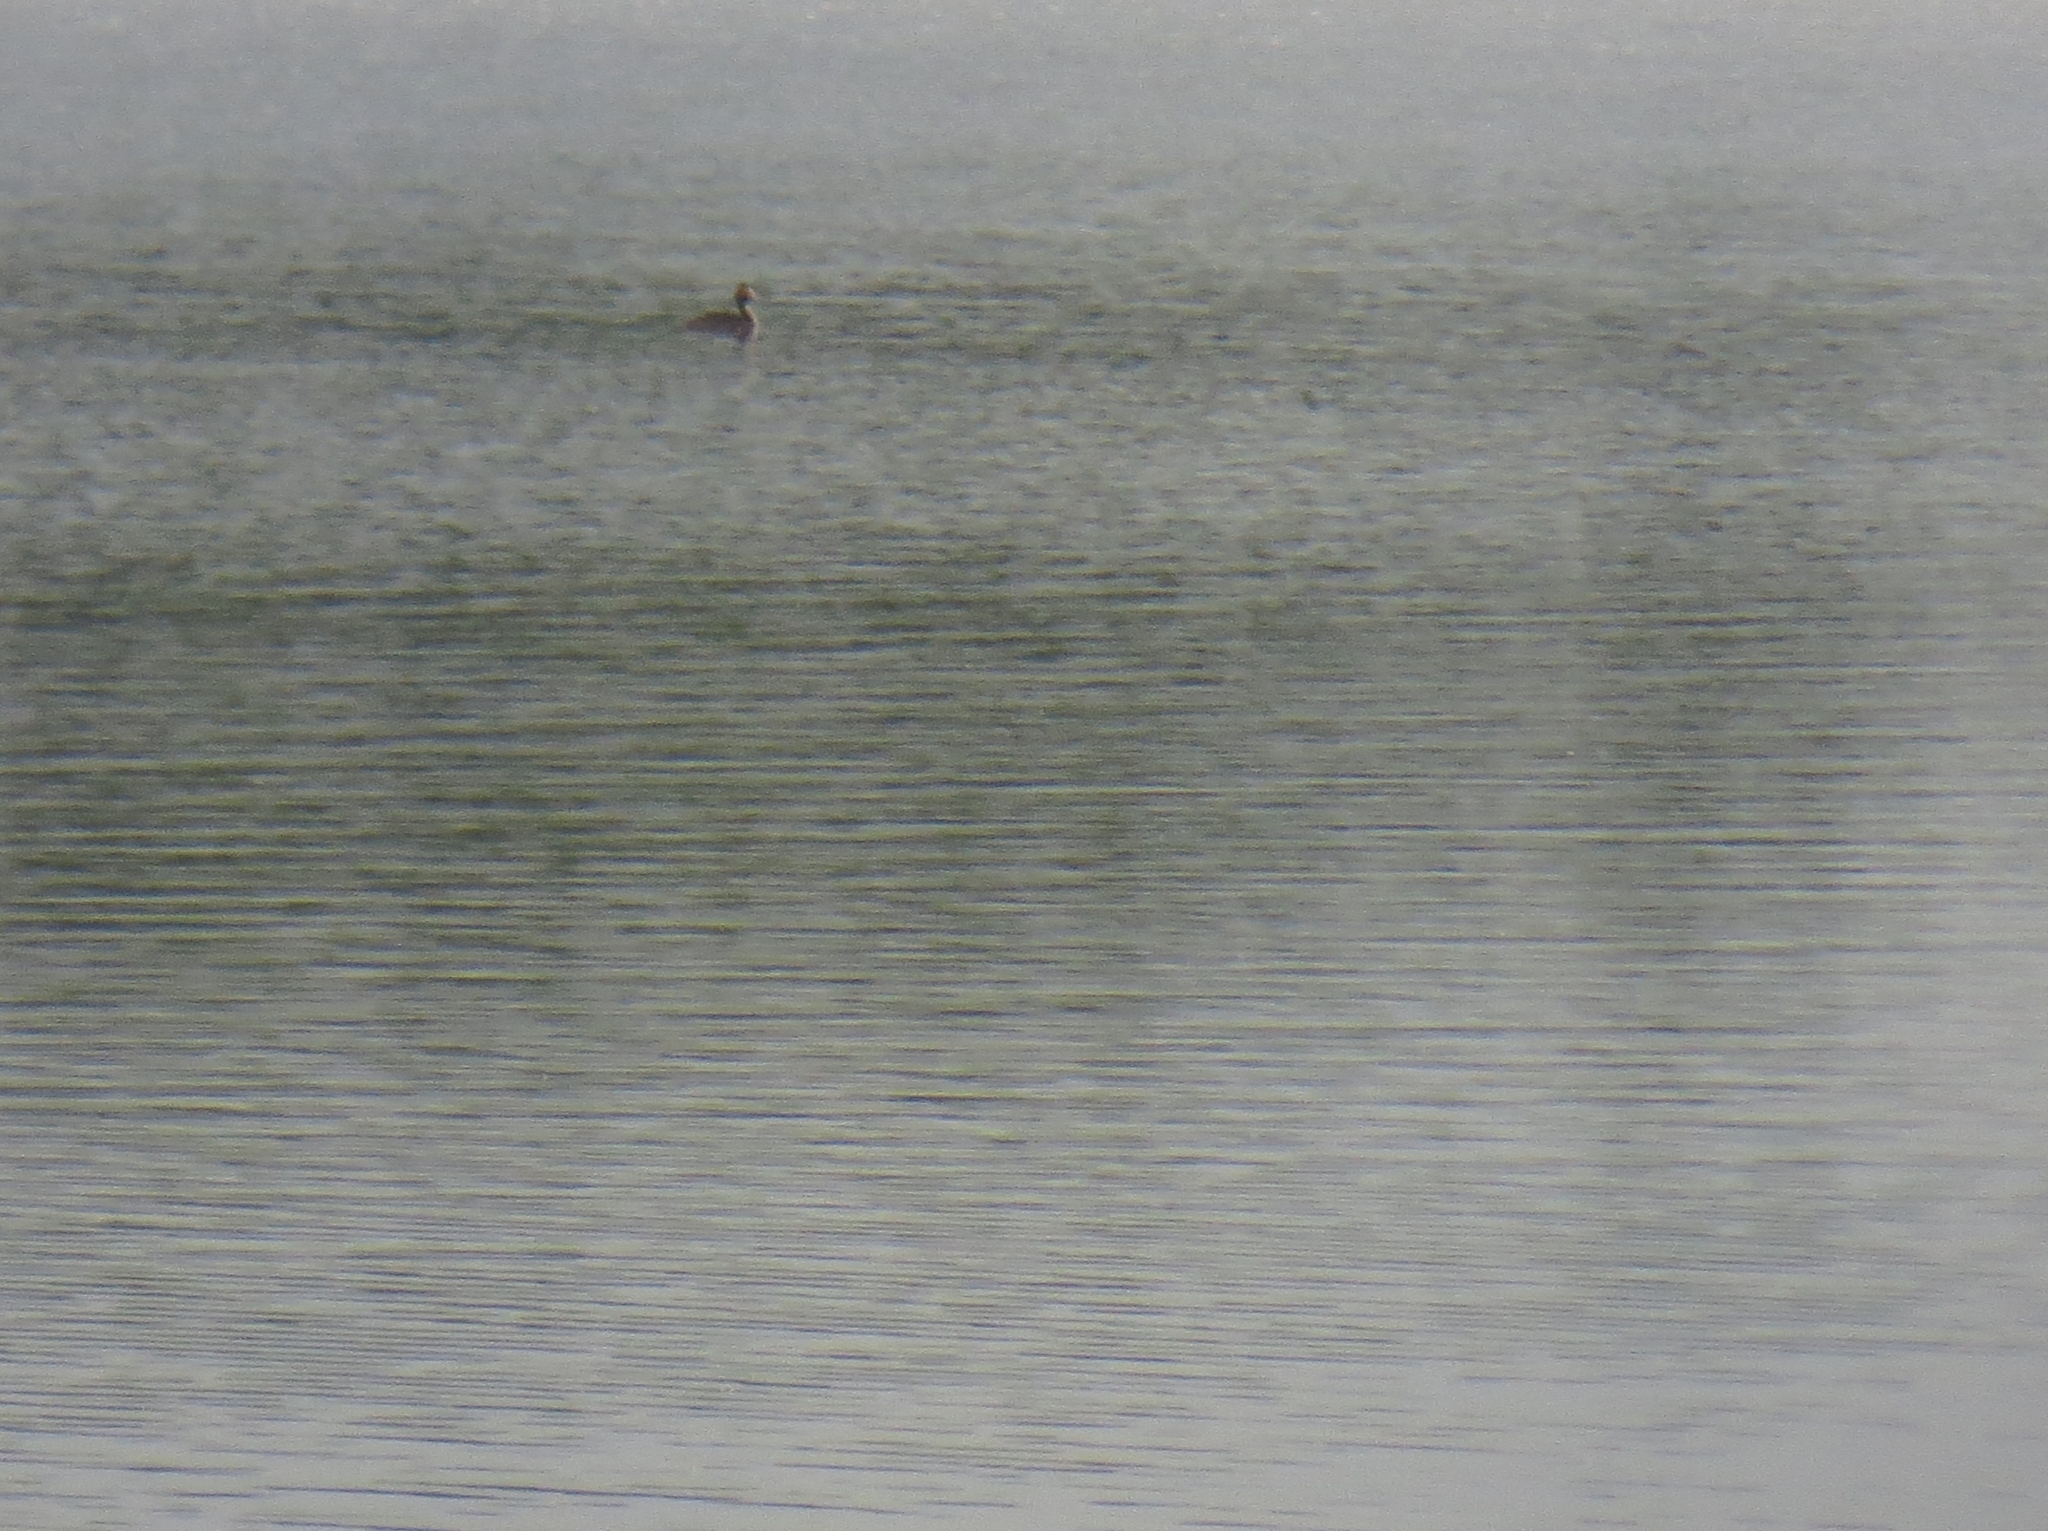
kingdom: Animalia
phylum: Chordata
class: Aves
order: Podicipediformes
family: Podicipedidae
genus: Podiceps
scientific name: Podiceps cristatus
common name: Great crested grebe
